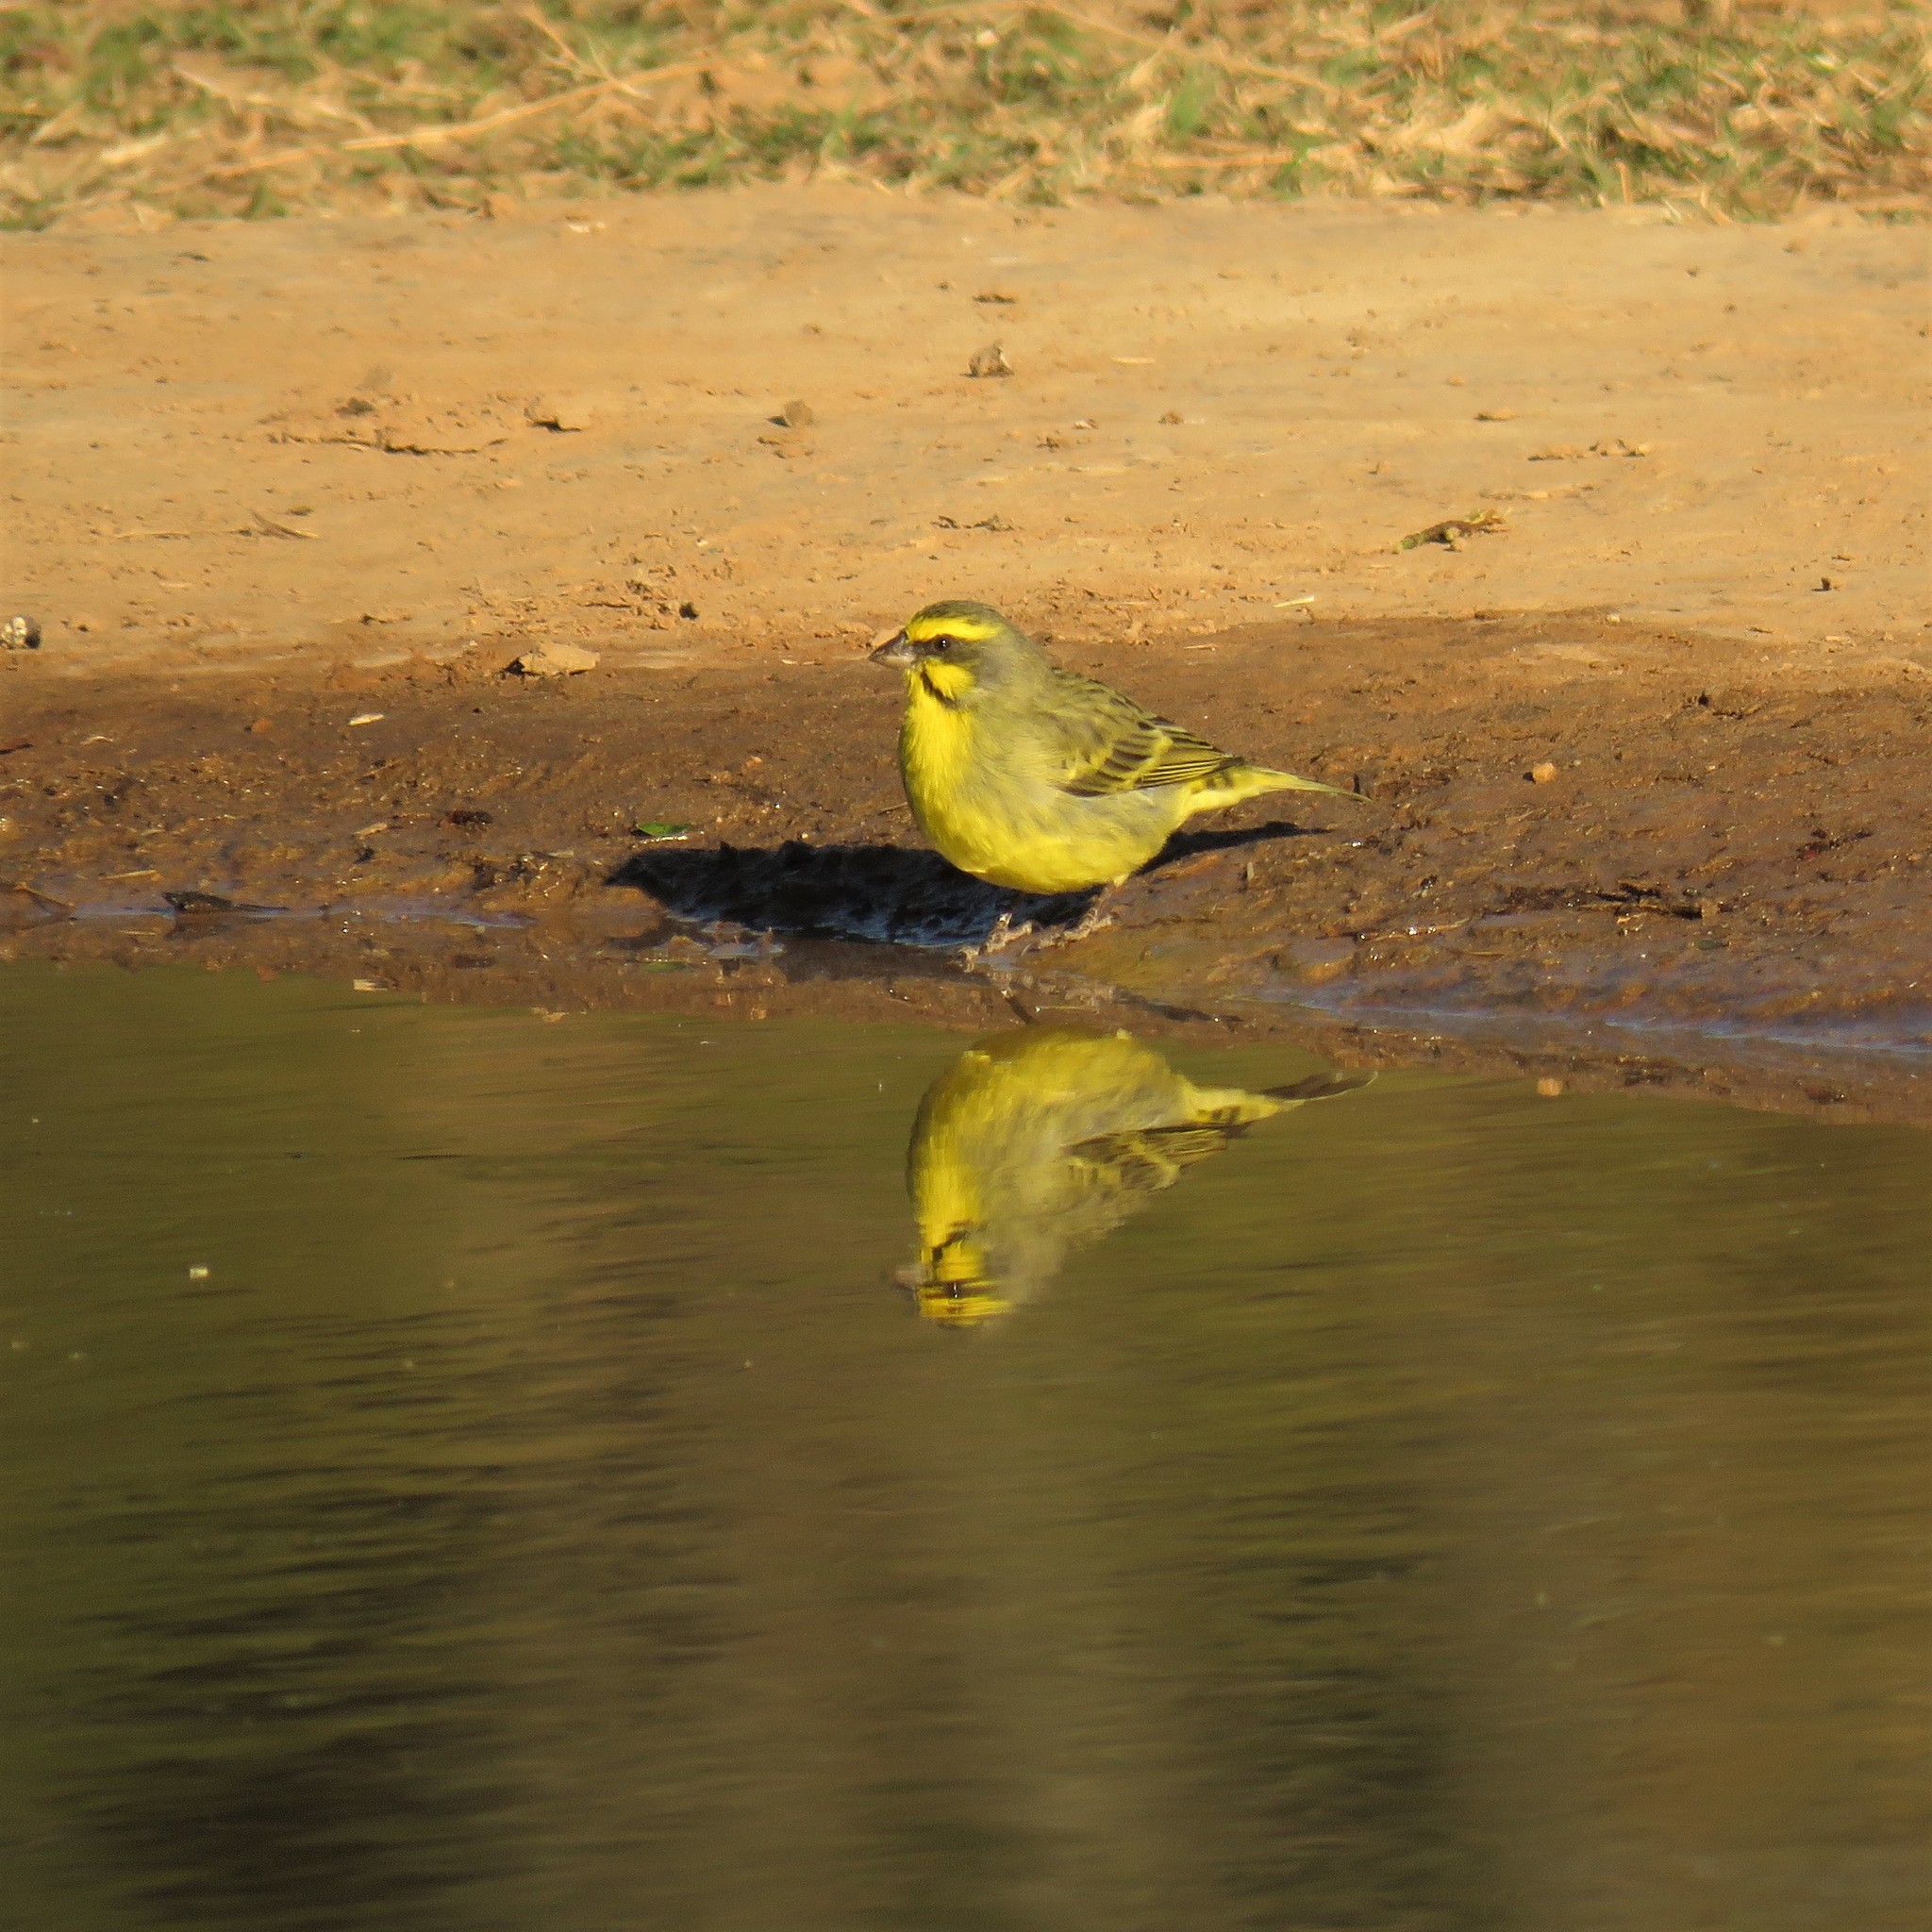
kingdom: Animalia
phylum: Chordata
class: Aves
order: Passeriformes
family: Fringillidae
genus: Crithagra
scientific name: Crithagra mozambica
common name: Yellow-fronted canary
